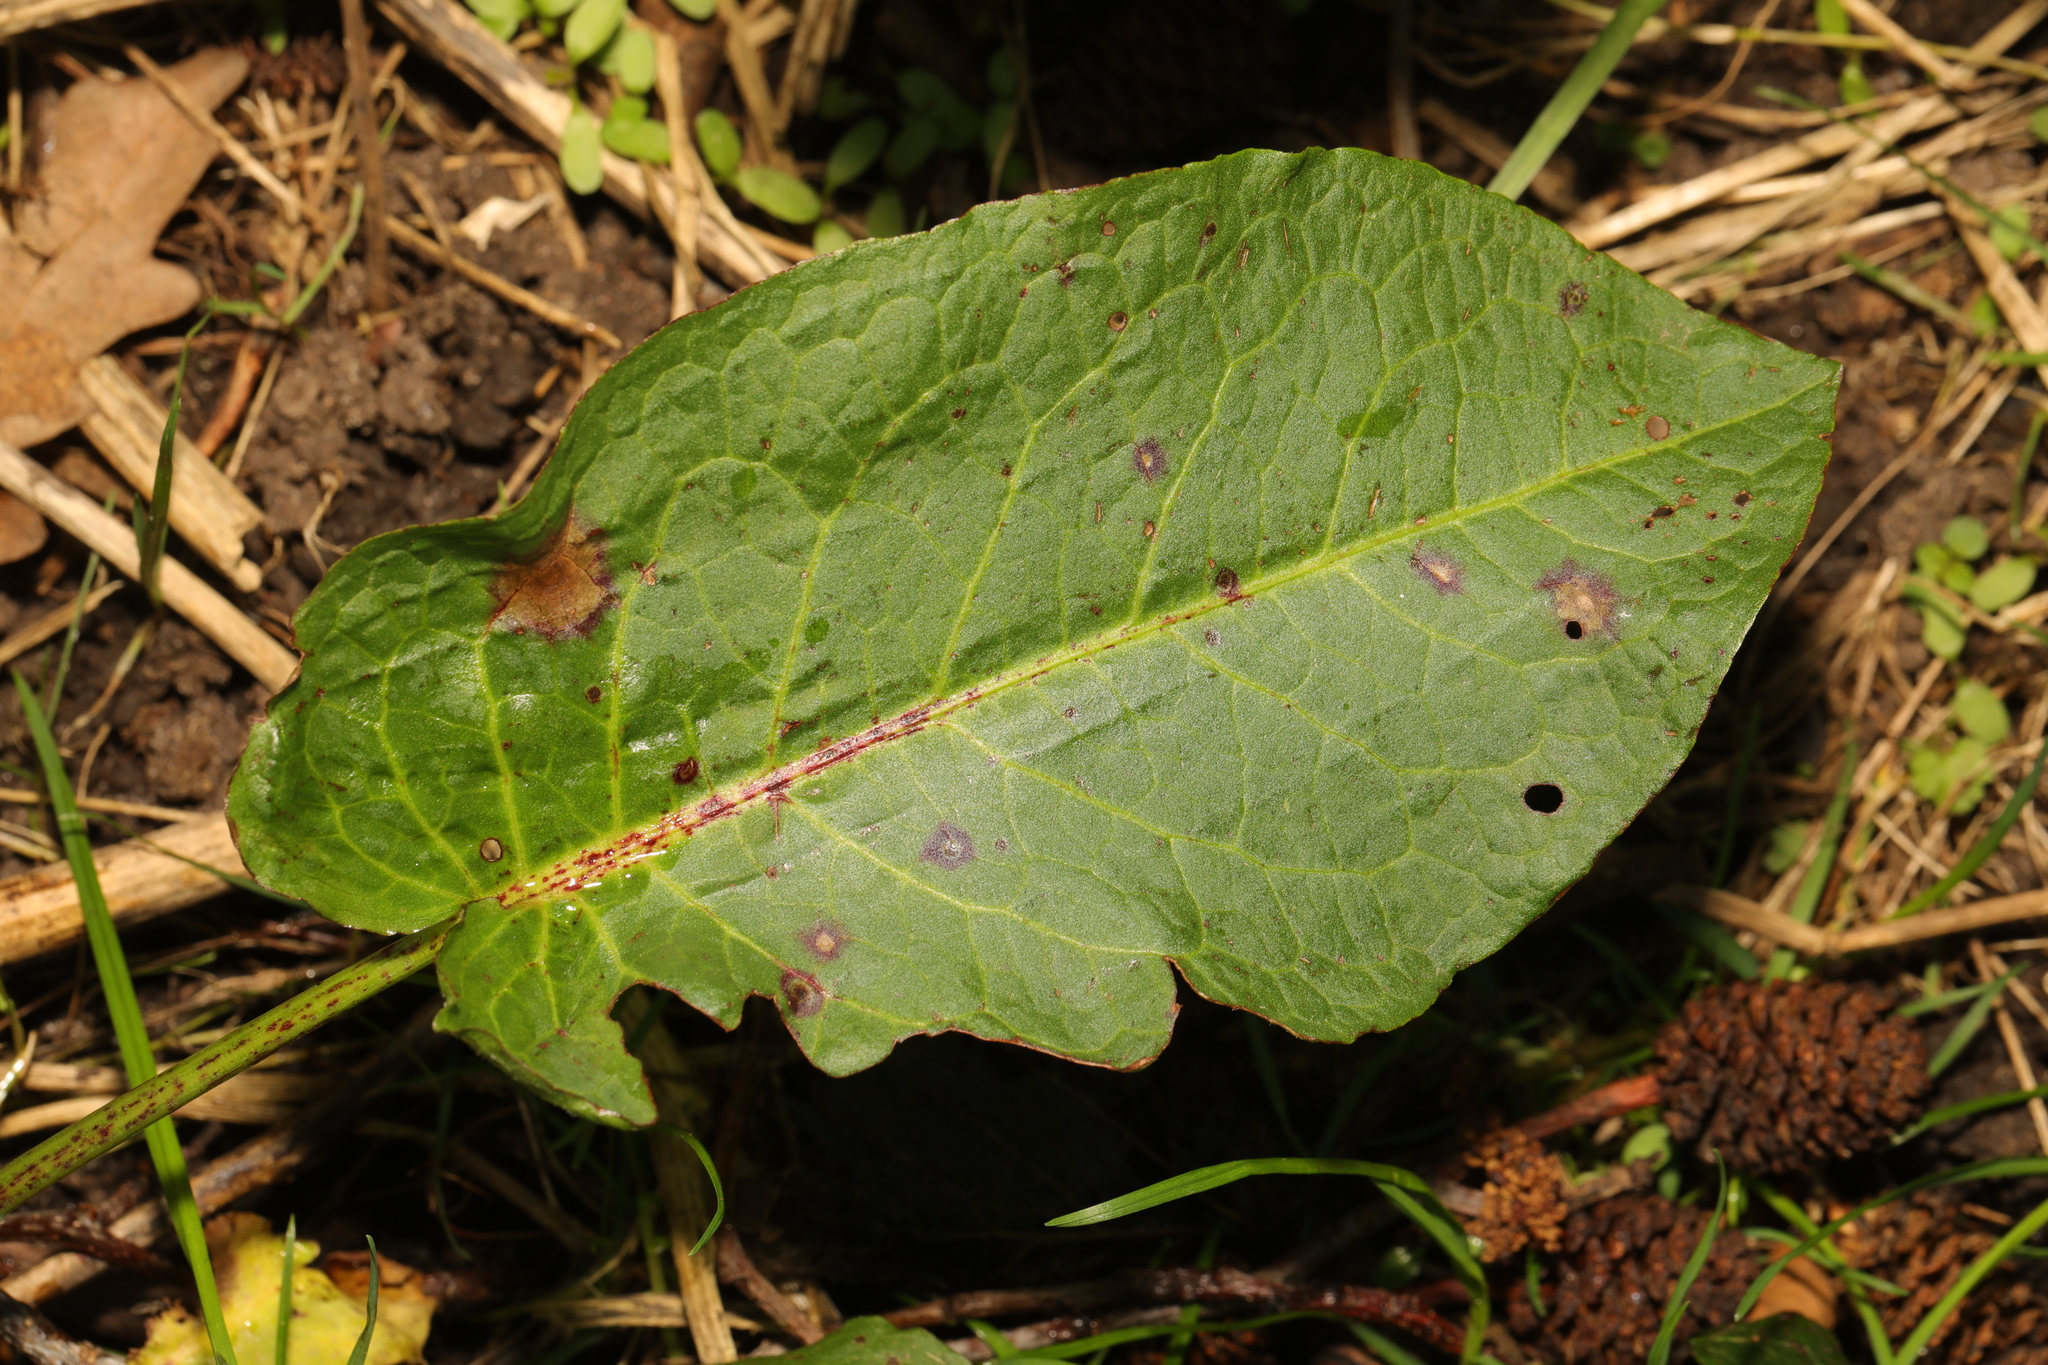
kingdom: Plantae
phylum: Tracheophyta
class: Magnoliopsida
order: Caryophyllales
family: Polygonaceae
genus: Rumex
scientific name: Rumex obtusifolius
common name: Bitter dock
